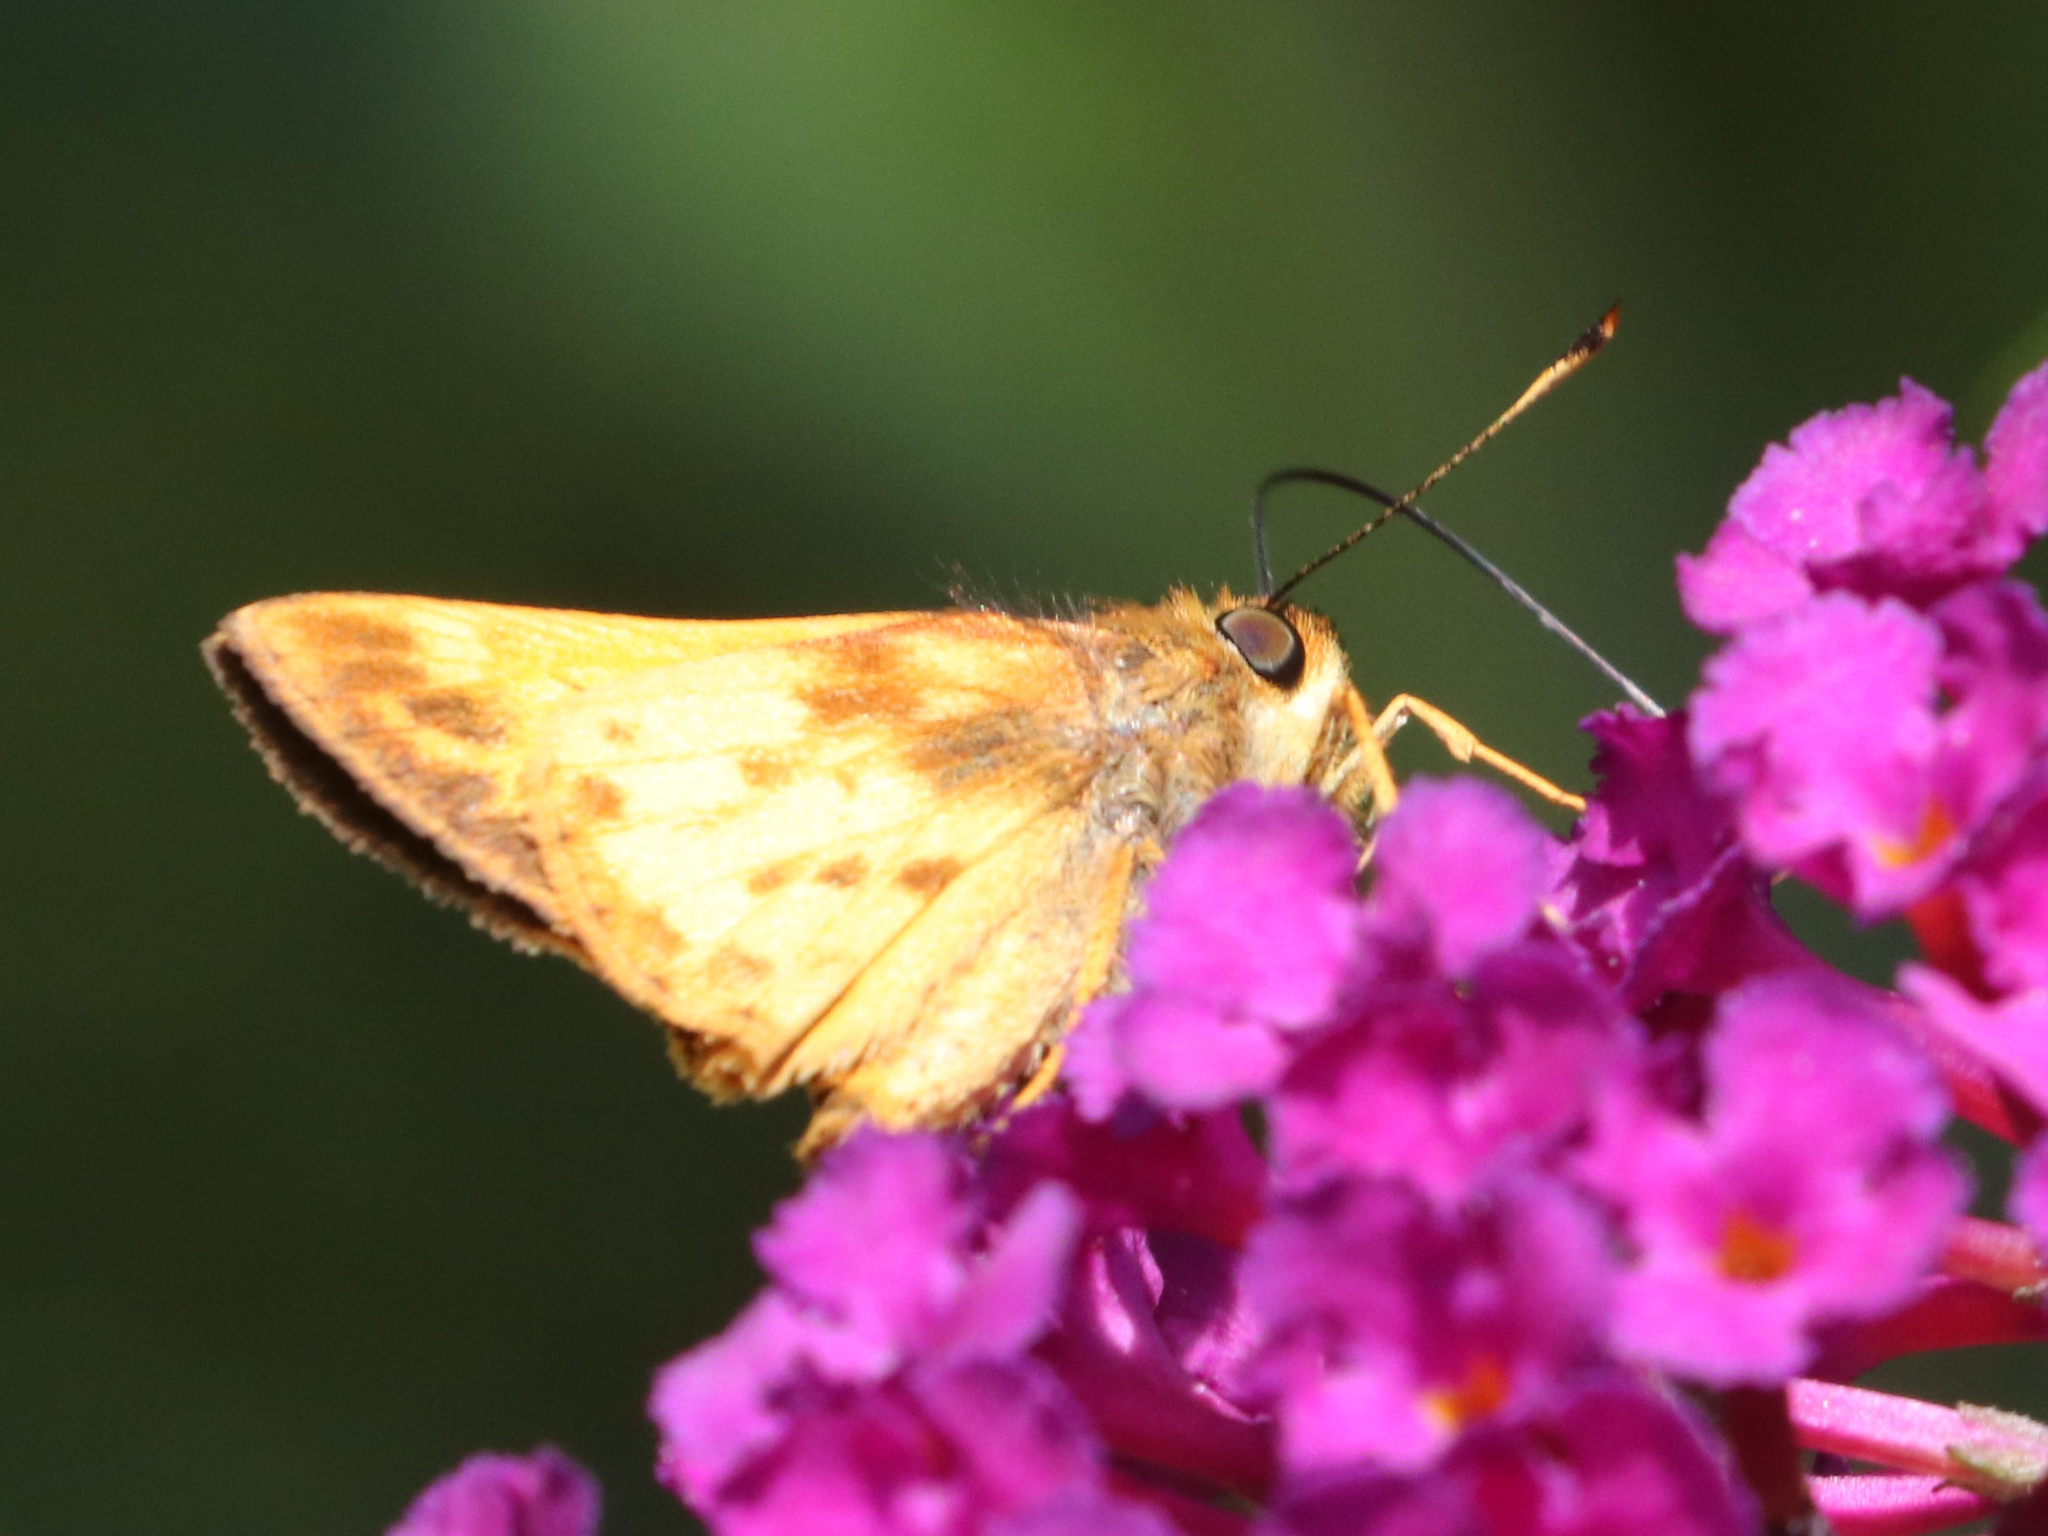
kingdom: Animalia
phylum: Arthropoda
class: Insecta
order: Lepidoptera
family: Hesperiidae
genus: Lon
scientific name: Lon zabulon
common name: Zabulon skipper
